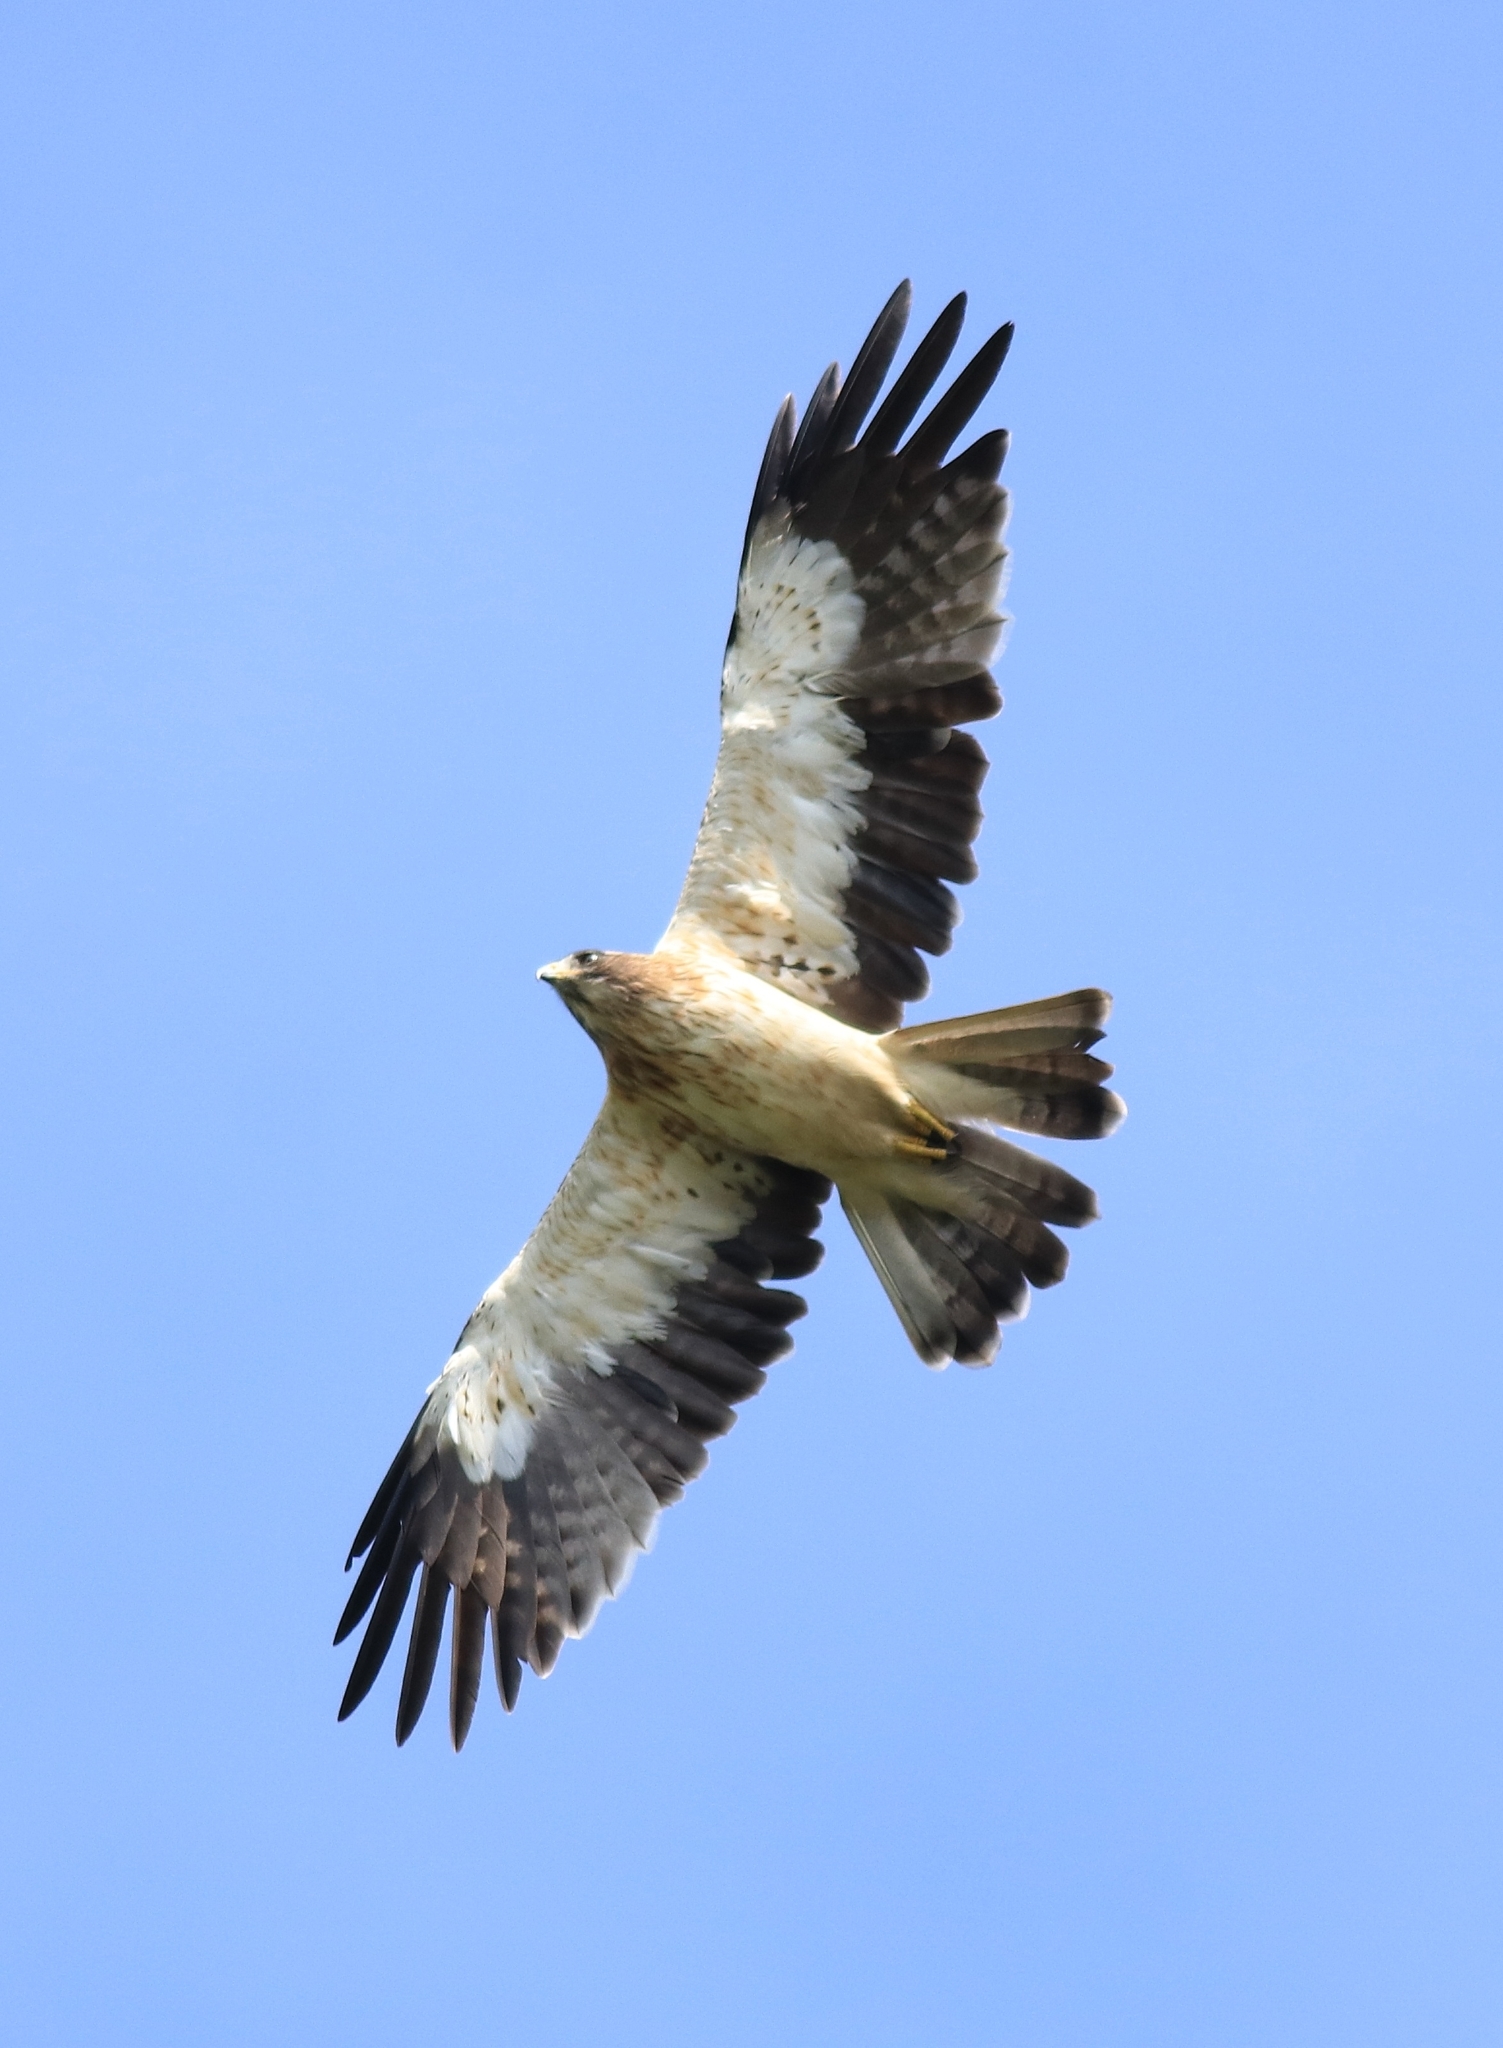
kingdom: Animalia
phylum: Chordata
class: Aves
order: Accipitriformes
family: Accipitridae
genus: Hieraaetus
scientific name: Hieraaetus pennatus
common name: Booted eagle
